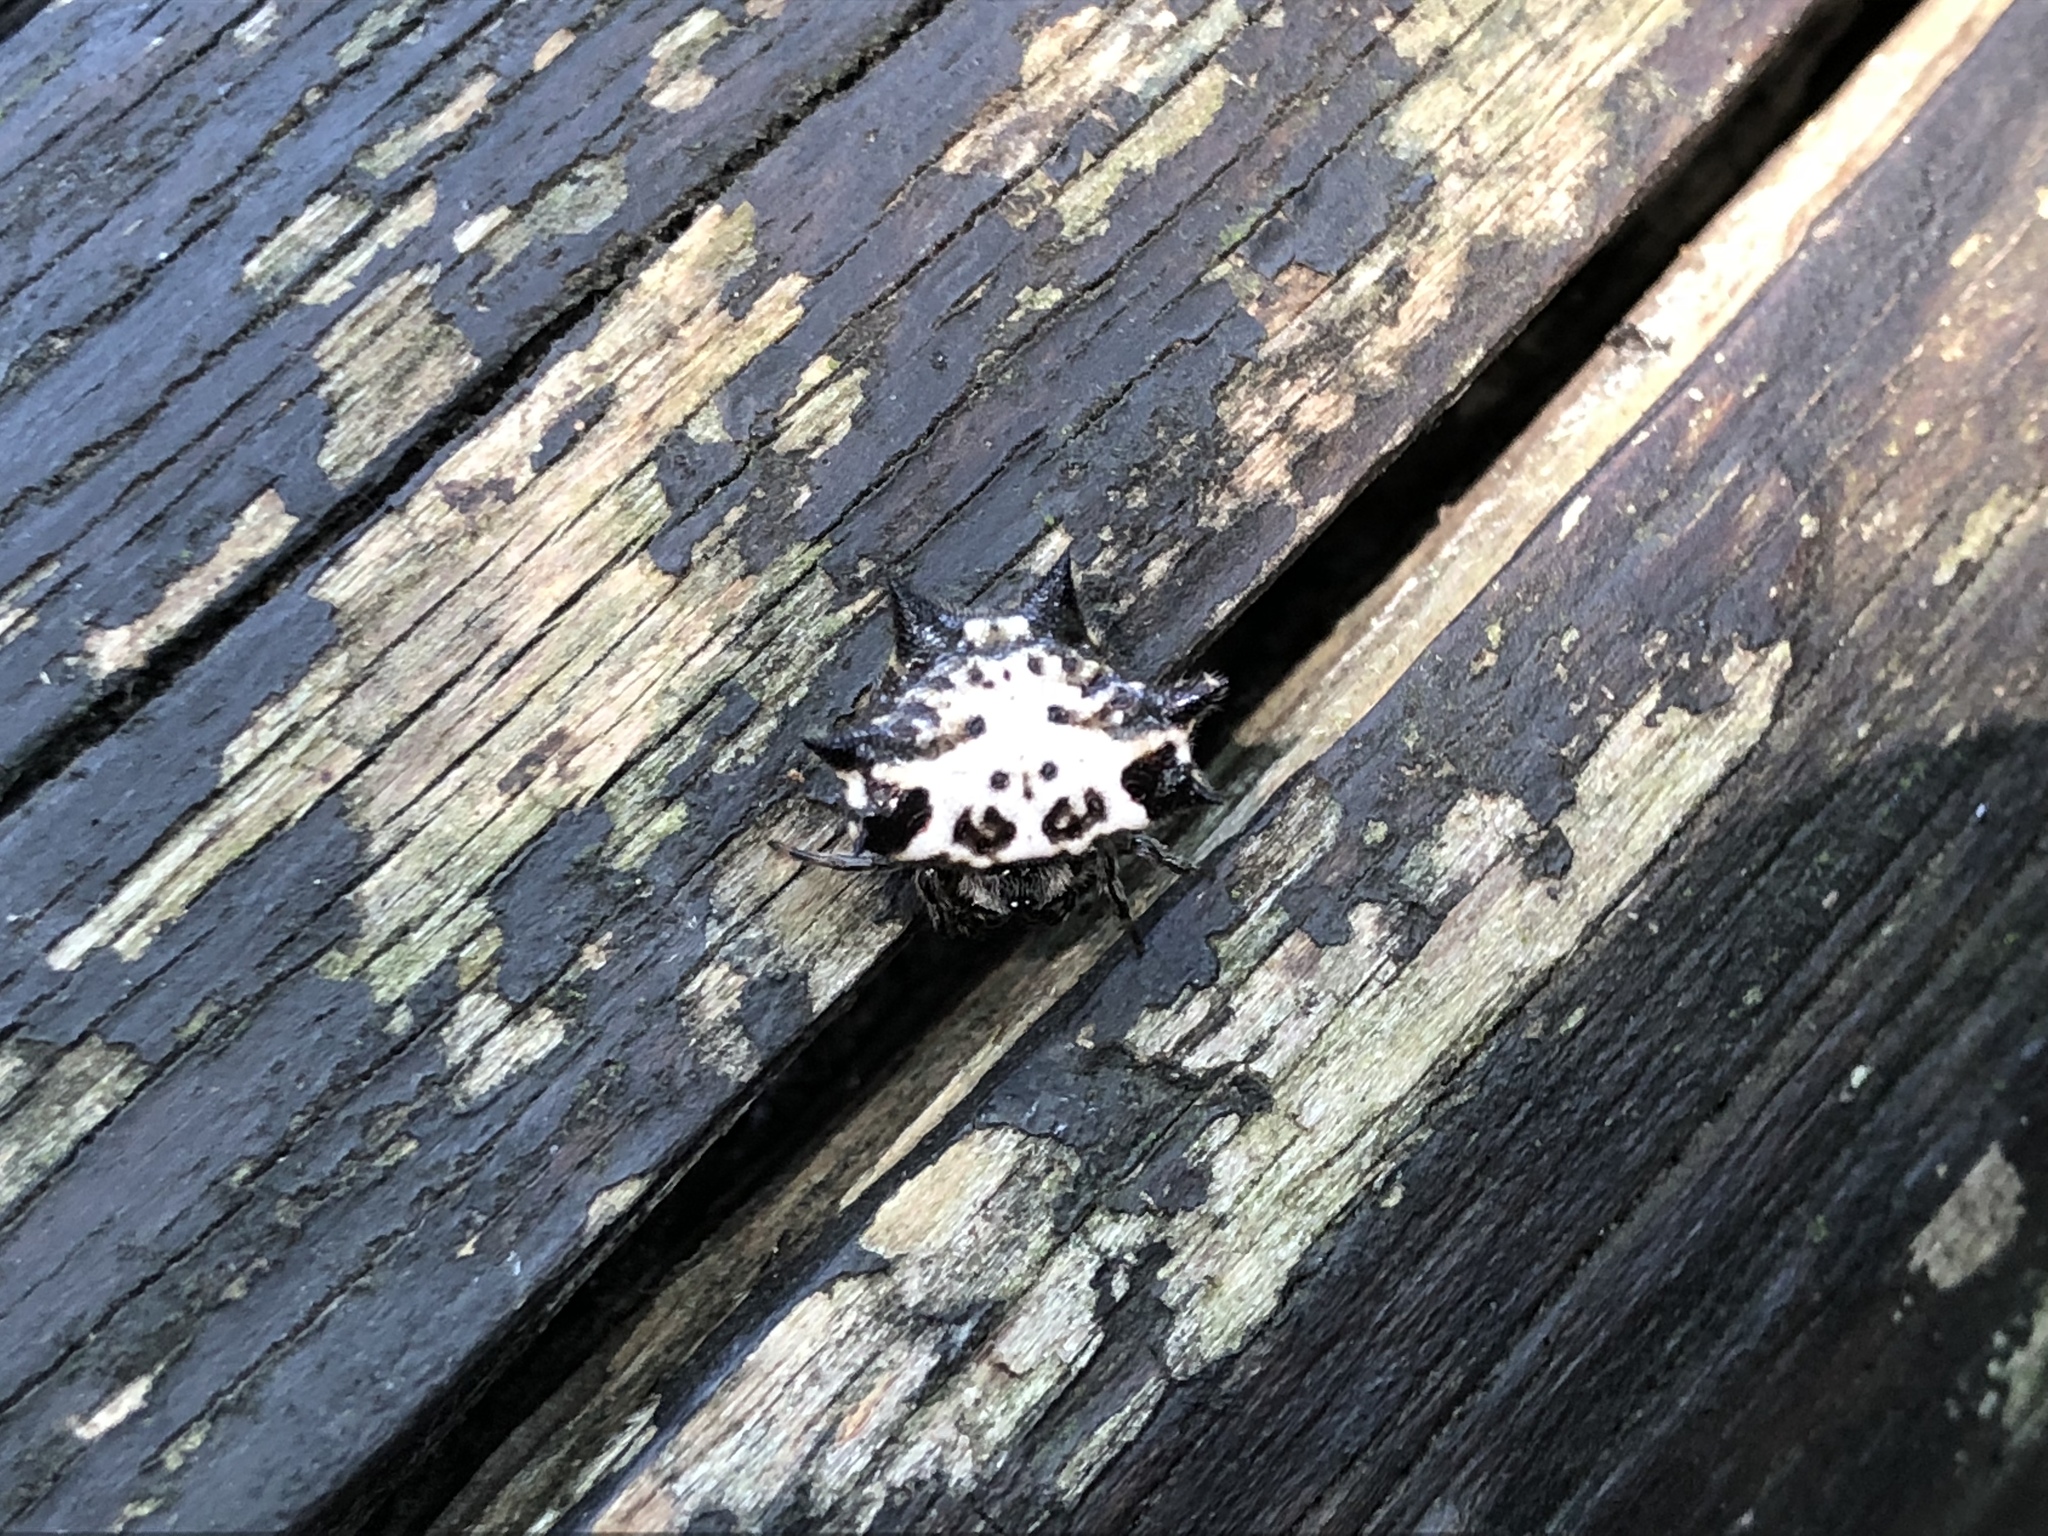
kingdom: Animalia
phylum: Arthropoda
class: Arachnida
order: Araneae
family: Araneidae
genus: Gasteracantha
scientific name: Gasteracantha kuhli
